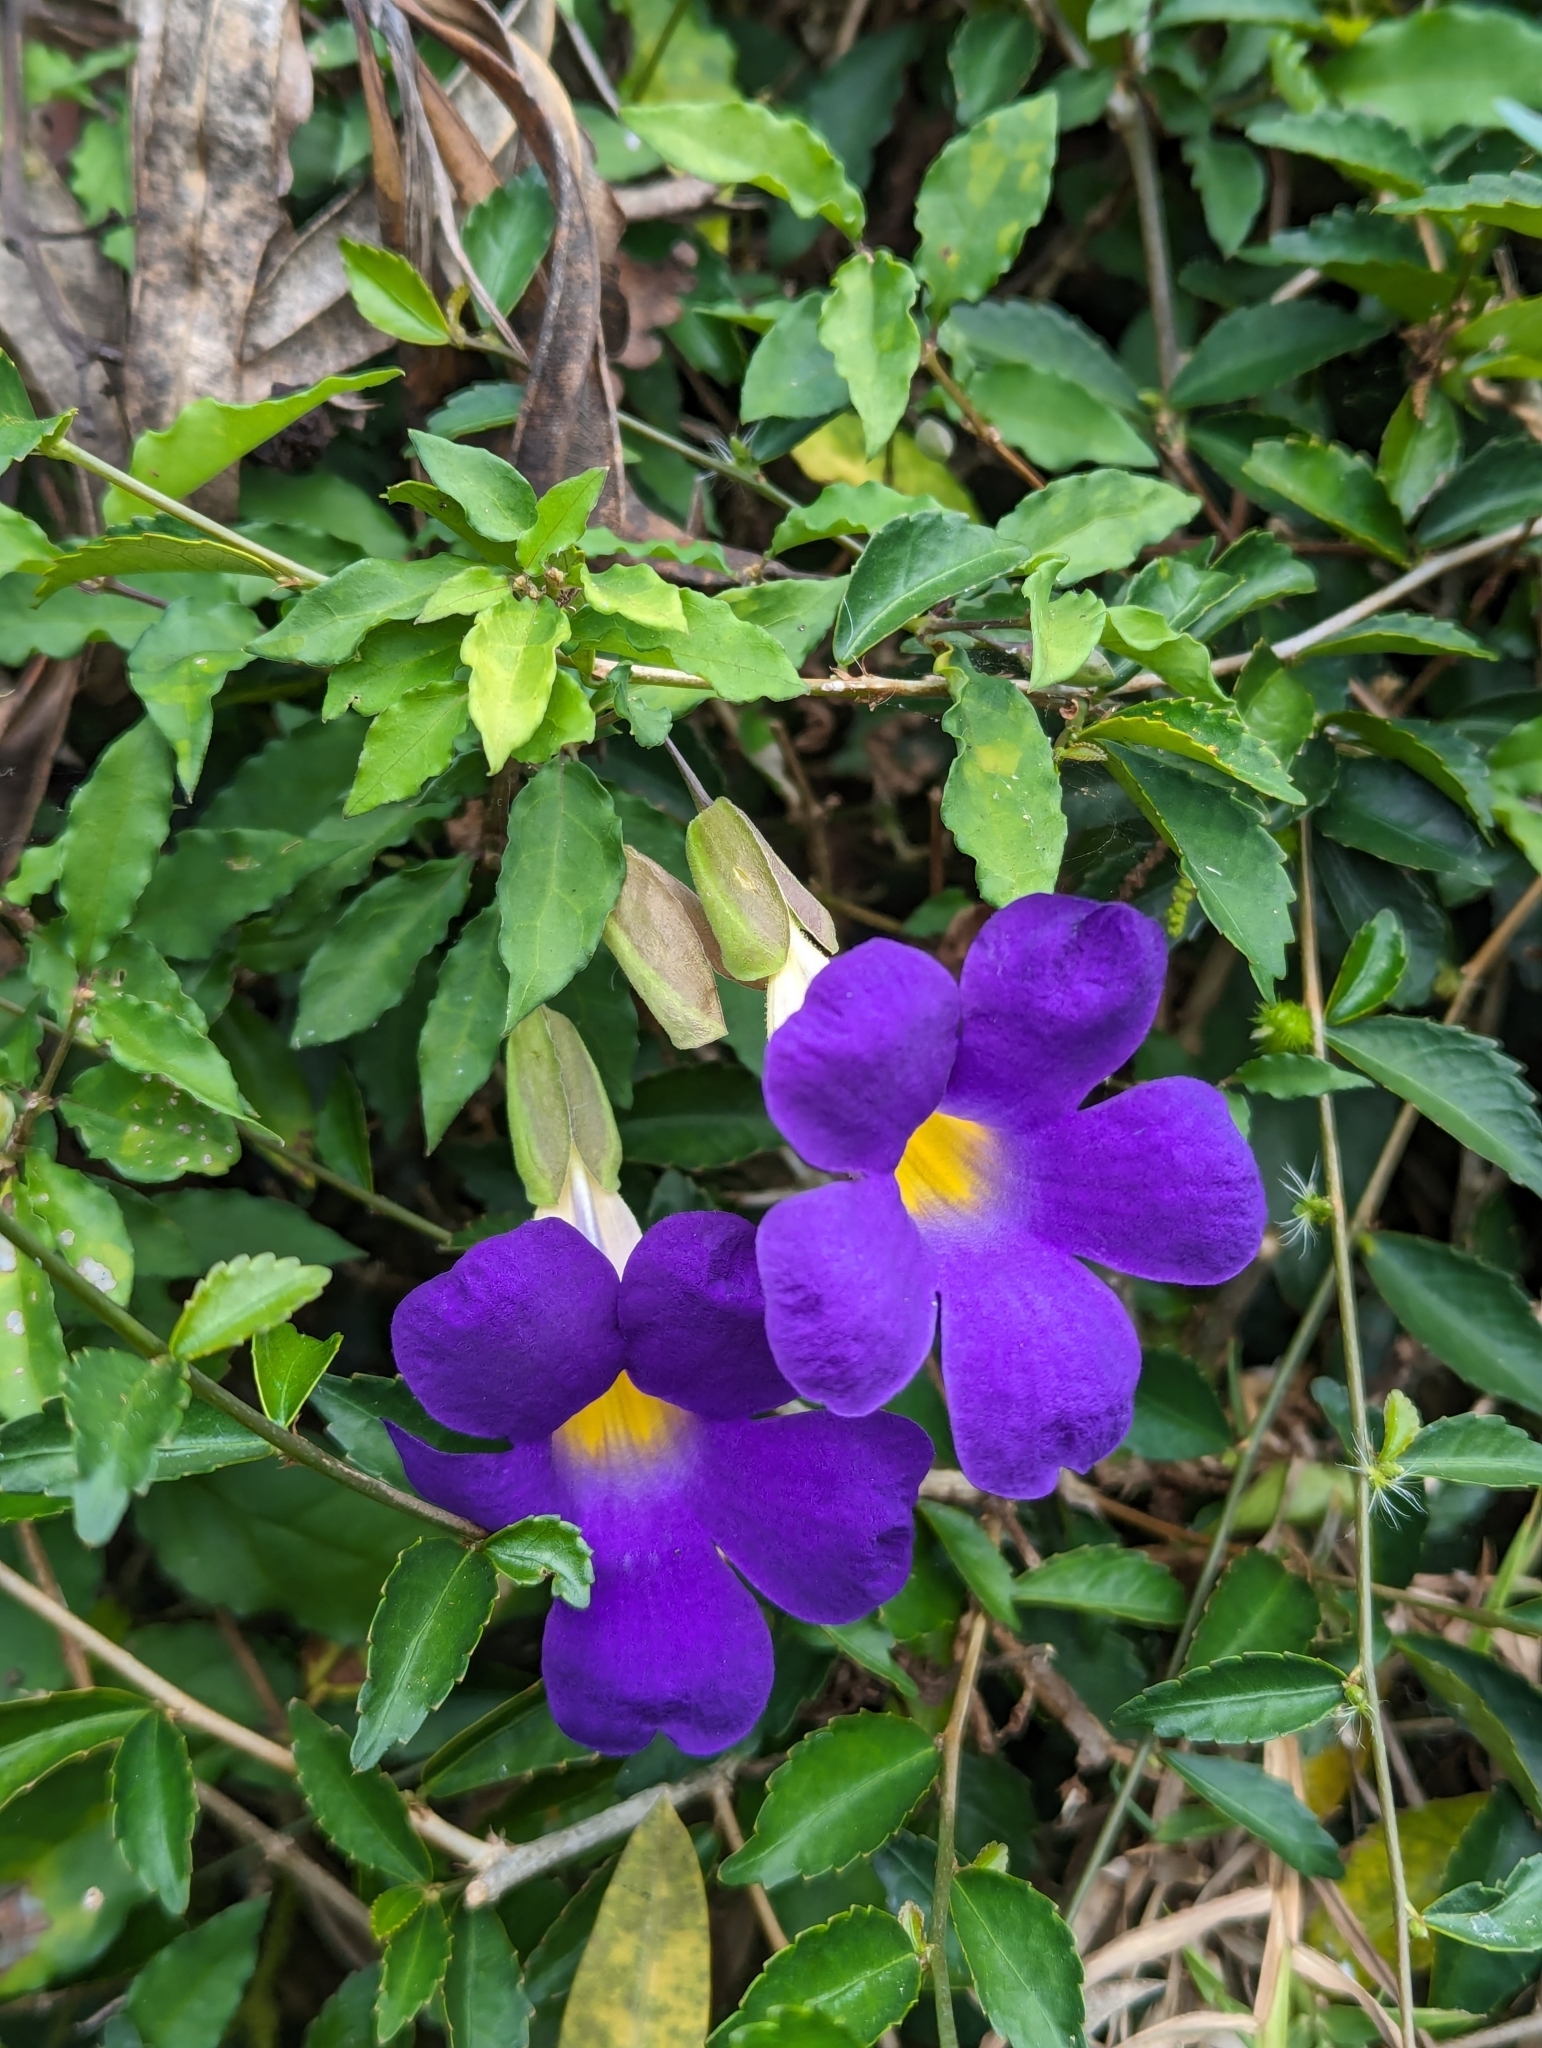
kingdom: Plantae
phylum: Tracheophyta
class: Magnoliopsida
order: Lamiales
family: Acanthaceae
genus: Thunbergia
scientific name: Thunbergia erecta
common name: Bush clockvine
